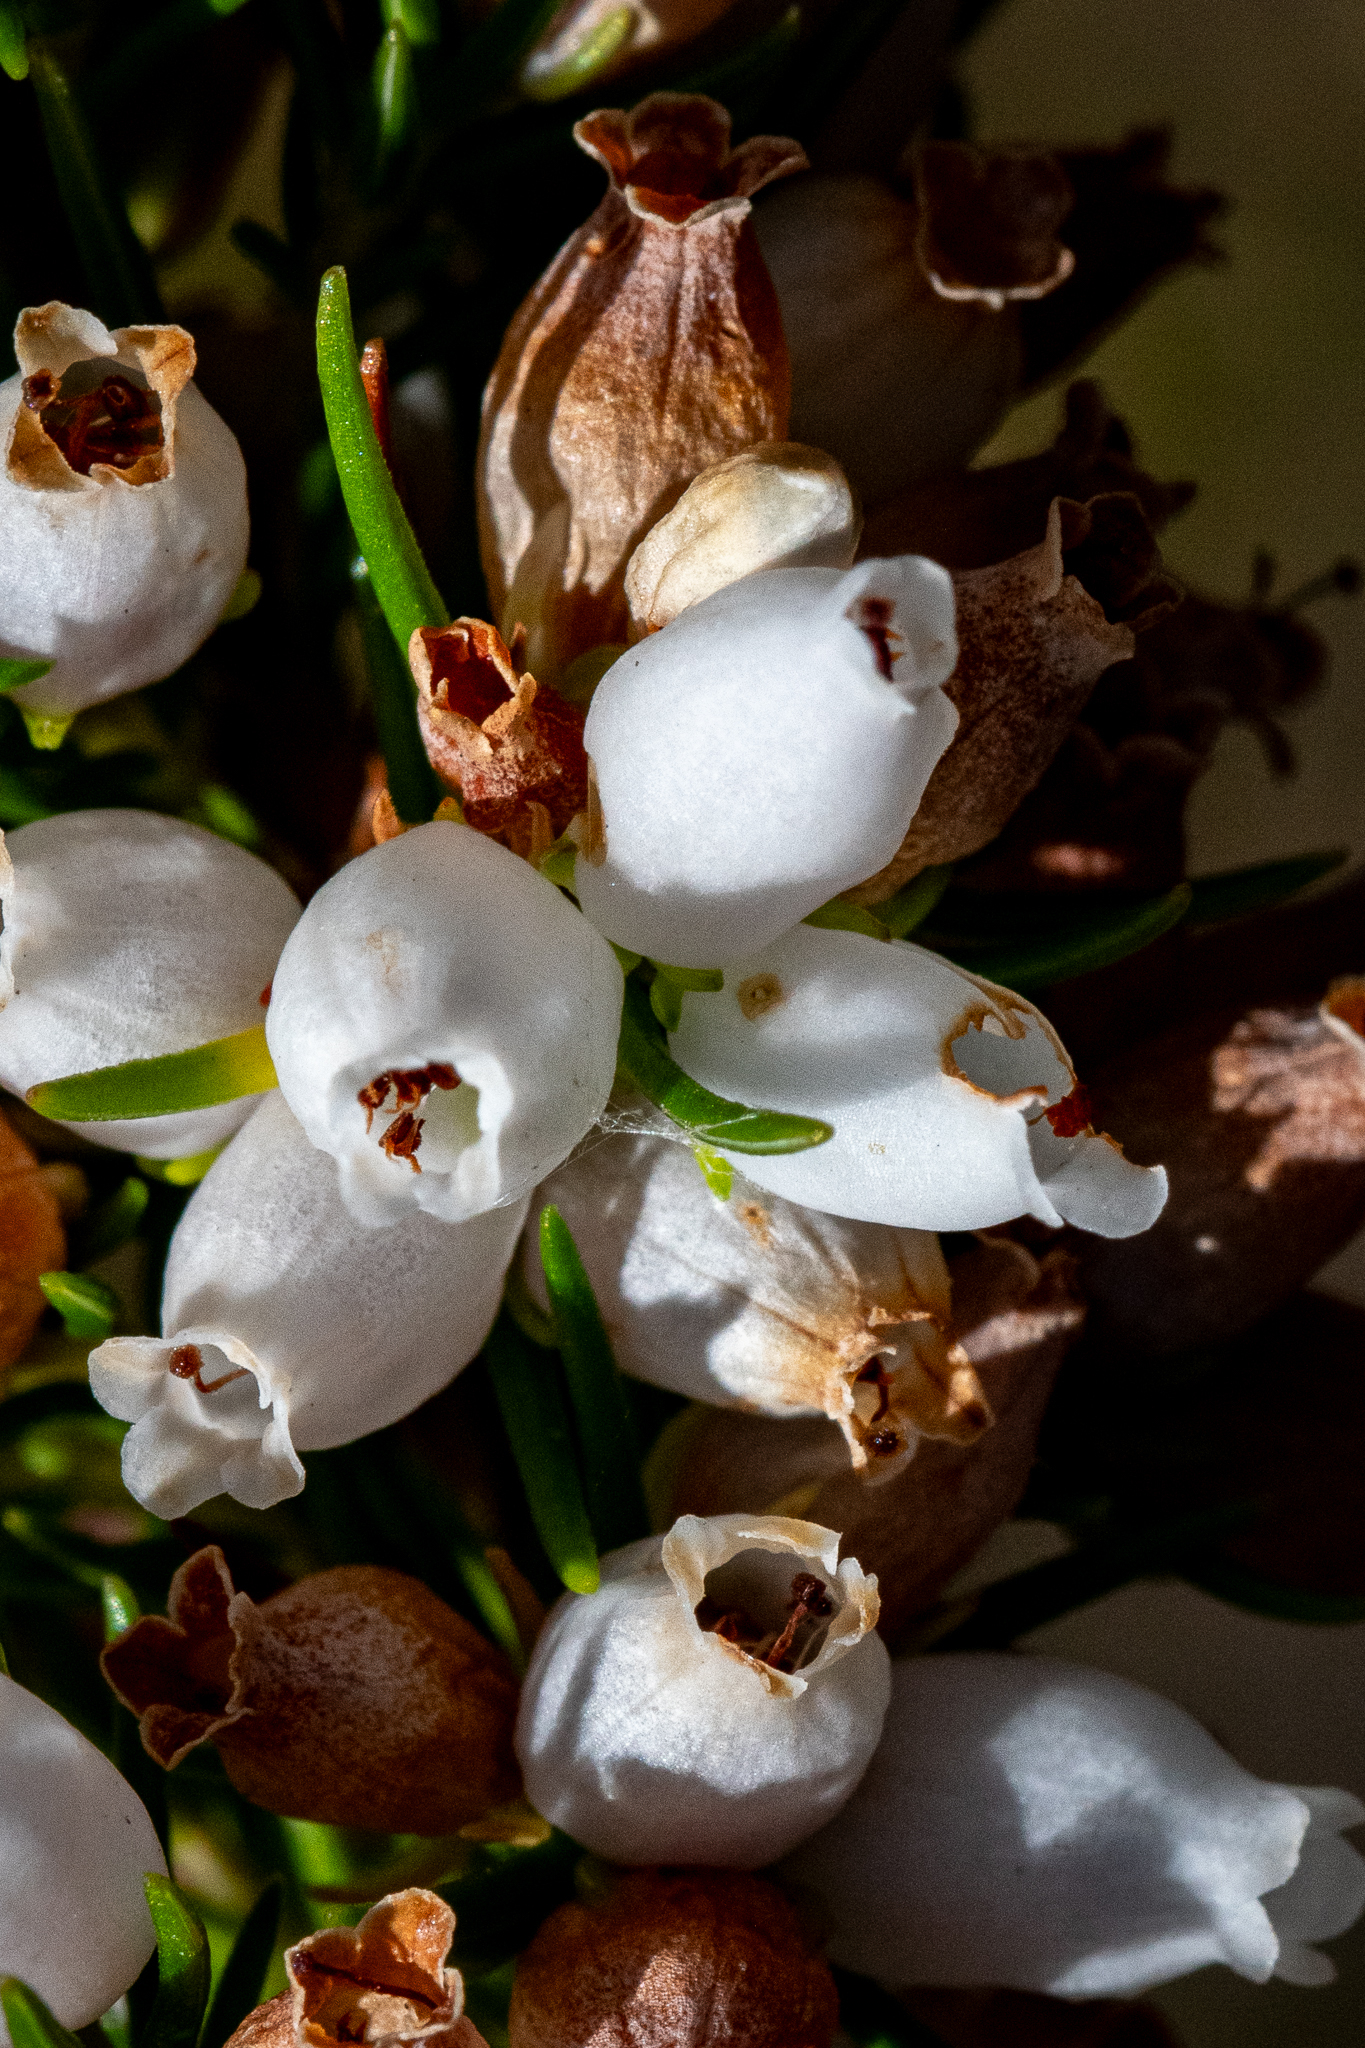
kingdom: Plantae
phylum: Tracheophyta
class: Magnoliopsida
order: Ericales
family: Ericaceae
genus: Erica
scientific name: Erica sitiens
